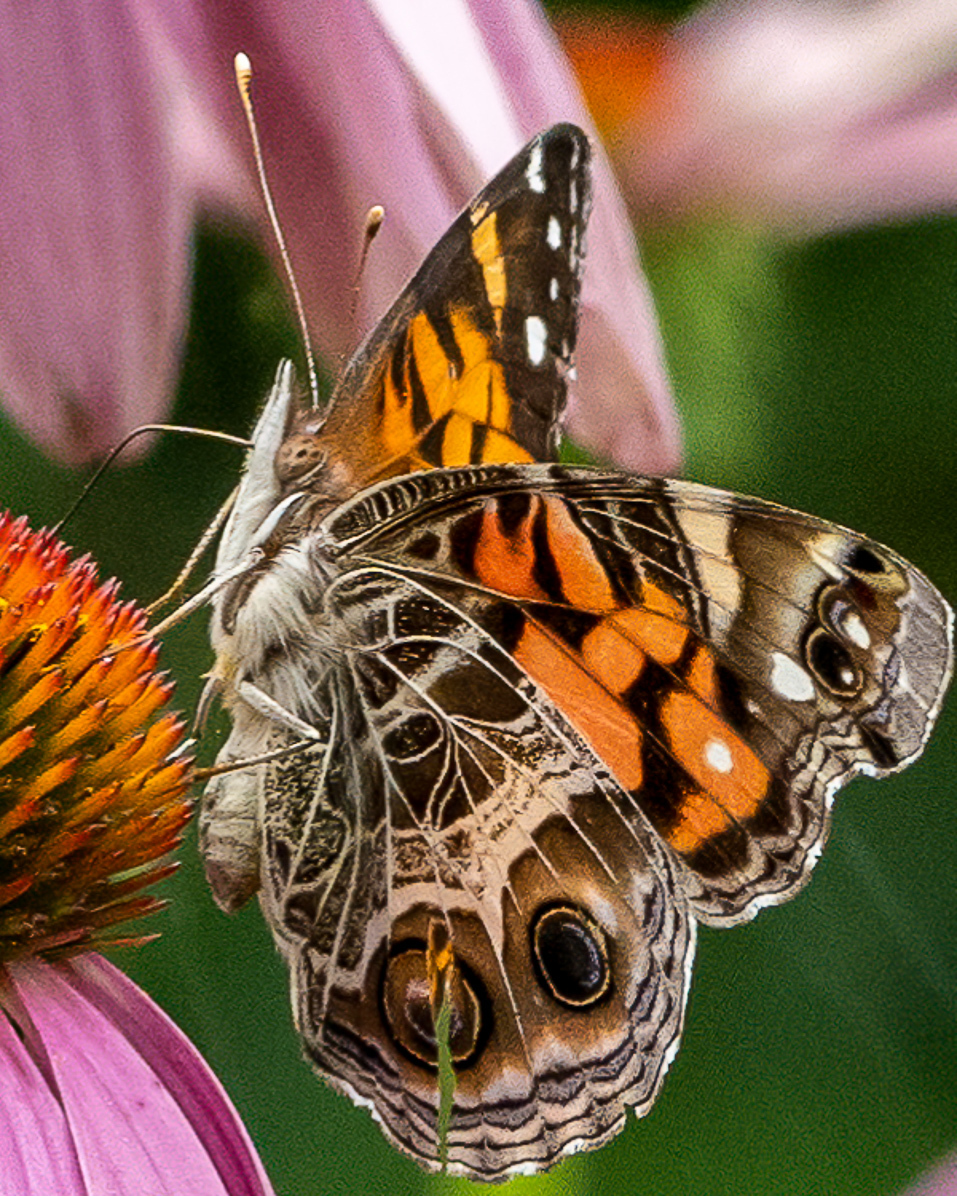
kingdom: Animalia
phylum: Arthropoda
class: Insecta
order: Lepidoptera
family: Nymphalidae
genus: Vanessa
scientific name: Vanessa virginiensis
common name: American lady
